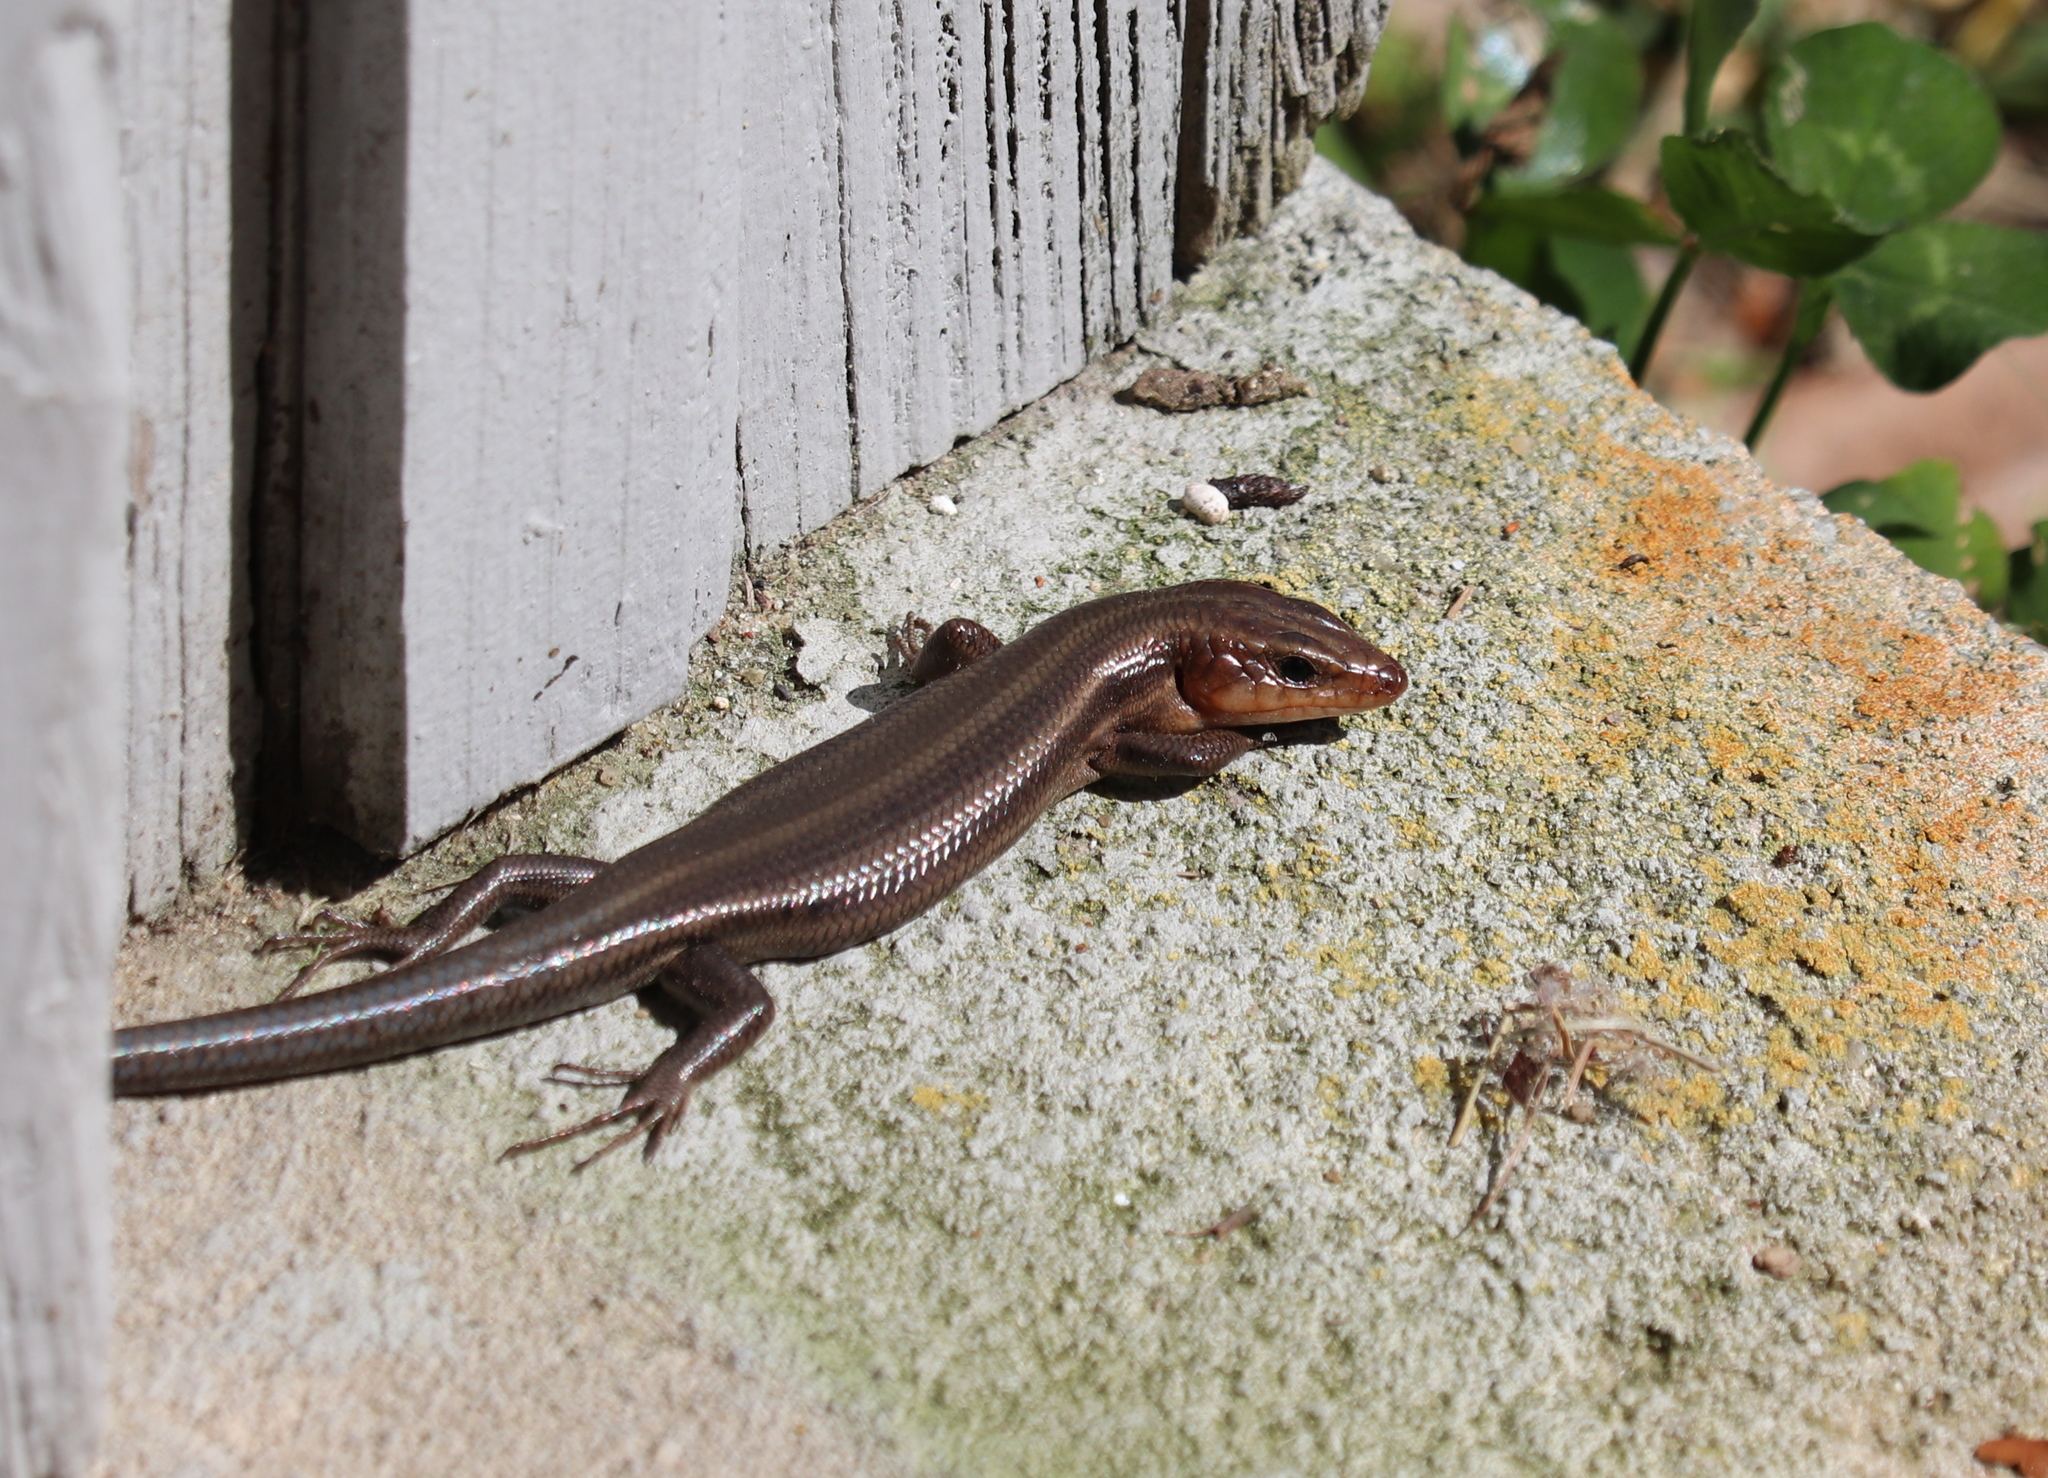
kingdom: Animalia
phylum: Chordata
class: Squamata
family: Scincidae
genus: Plestiodon
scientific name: Plestiodon fasciatus
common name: Five-lined skink
